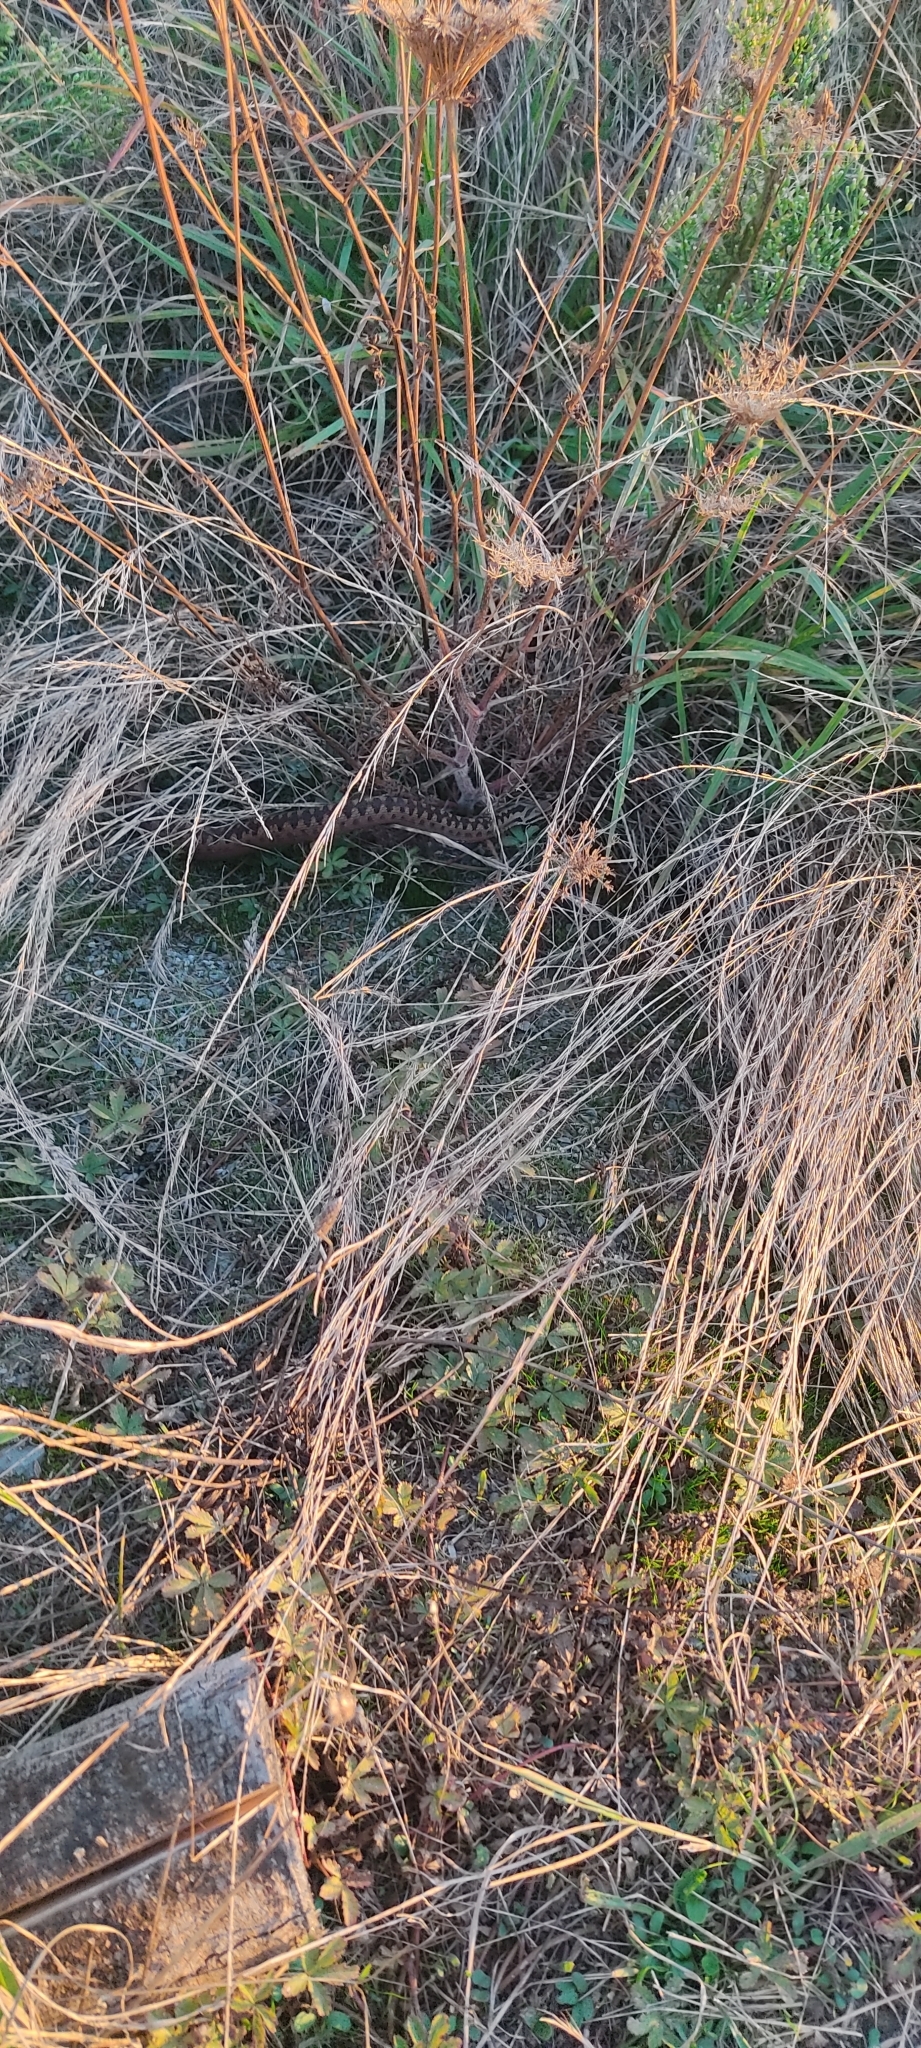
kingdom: Animalia
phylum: Chordata
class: Squamata
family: Viperidae
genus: Vipera
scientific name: Vipera berus
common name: Adder
